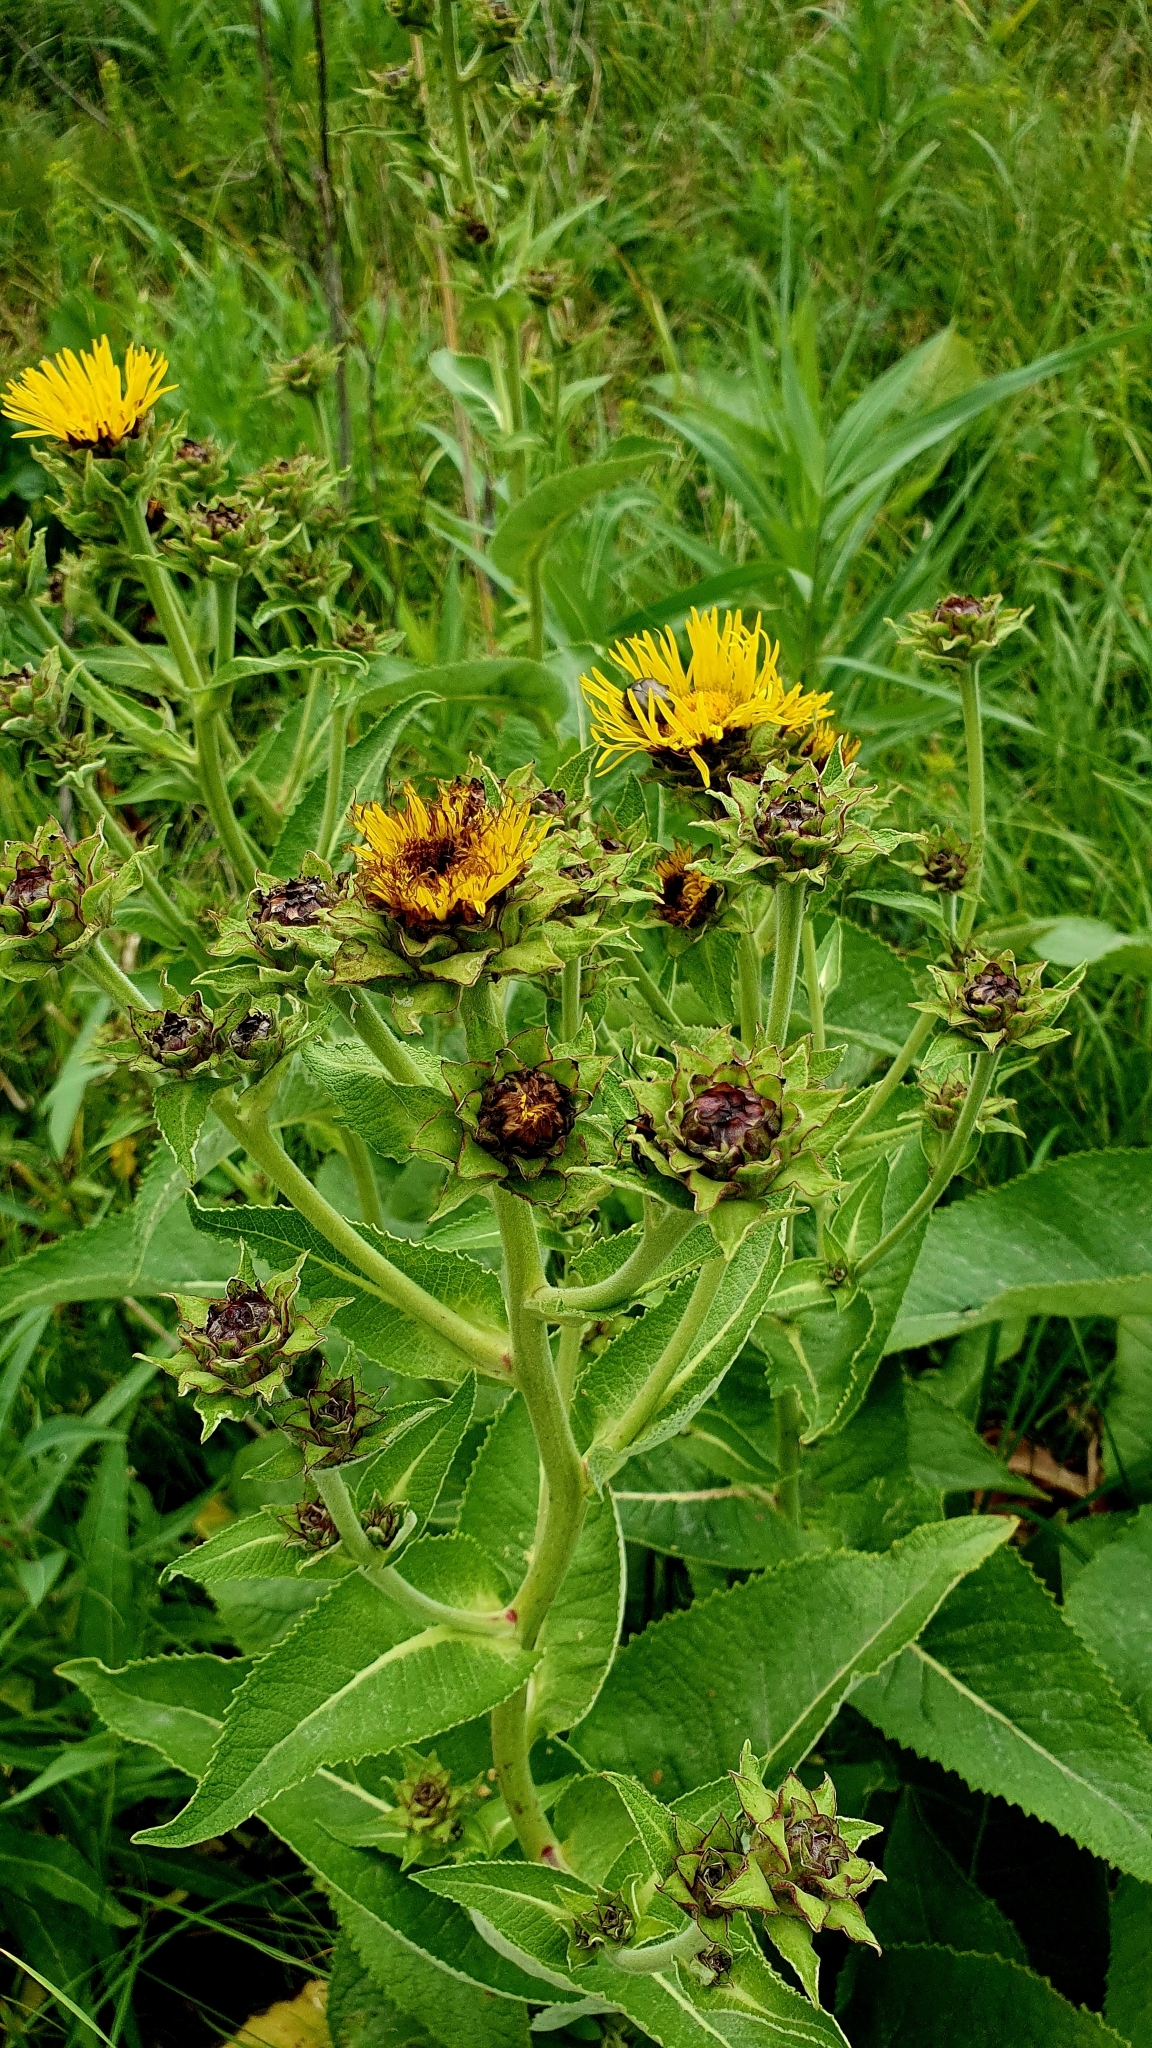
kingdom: Plantae
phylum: Tracheophyta
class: Magnoliopsida
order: Asterales
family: Asteraceae
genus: Inula
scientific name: Inula helenium
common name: Elecampane
